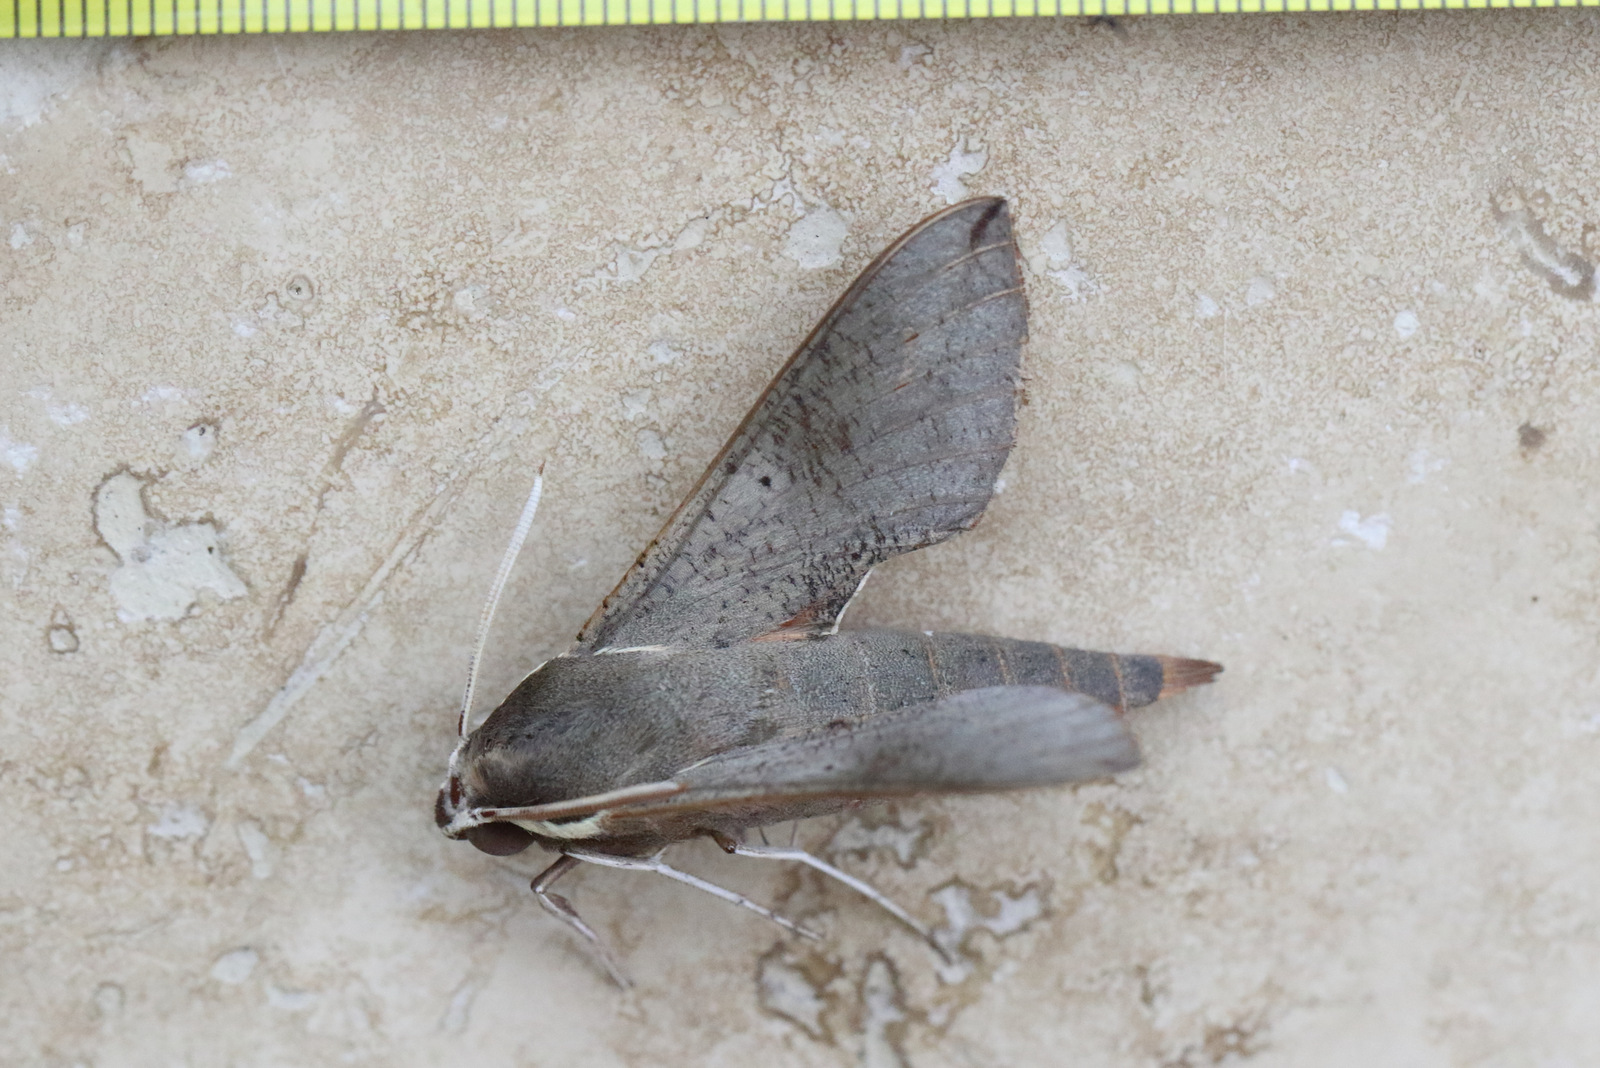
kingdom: Animalia
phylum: Arthropoda
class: Insecta
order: Lepidoptera
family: Sphingidae
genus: Hippotion
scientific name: Hippotion scrofa
